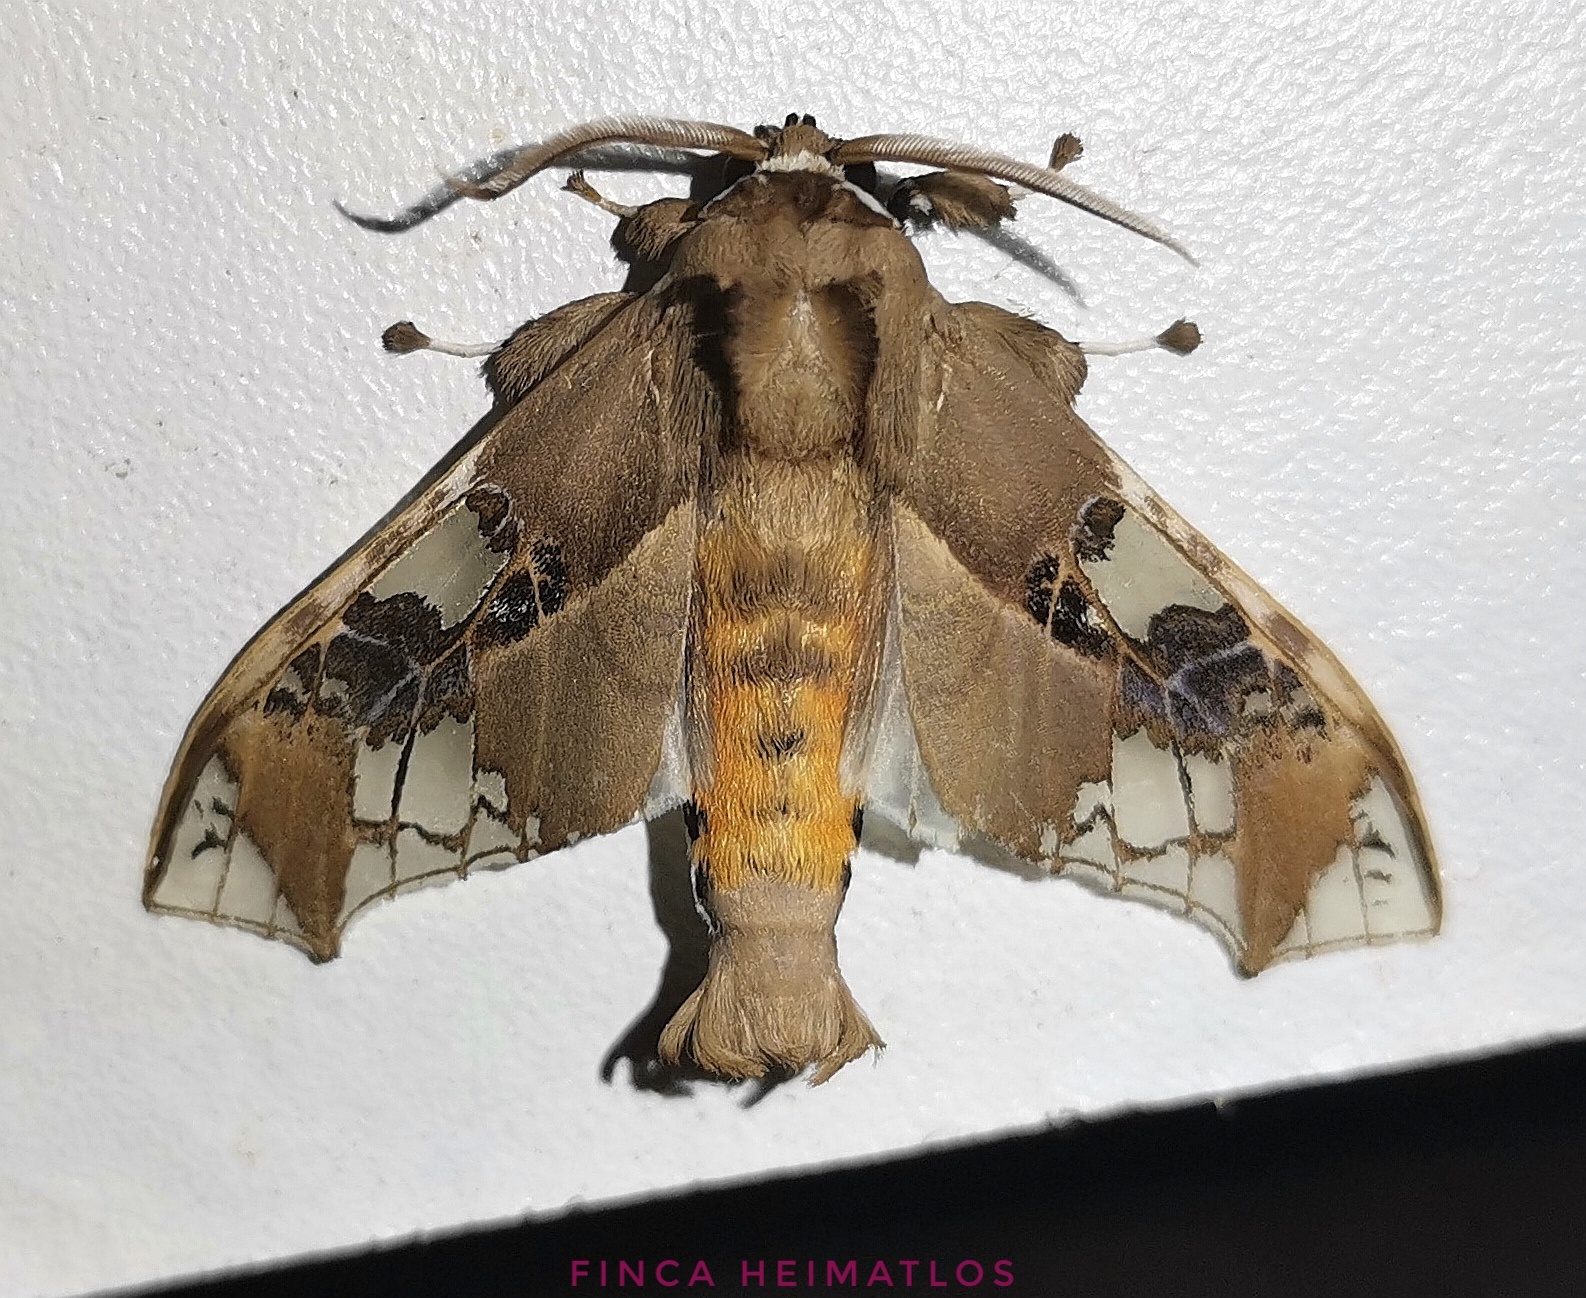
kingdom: Animalia
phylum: Arthropoda
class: Insecta
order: Lepidoptera
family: Erebidae
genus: Parathyris
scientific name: Parathyris cedonulli
